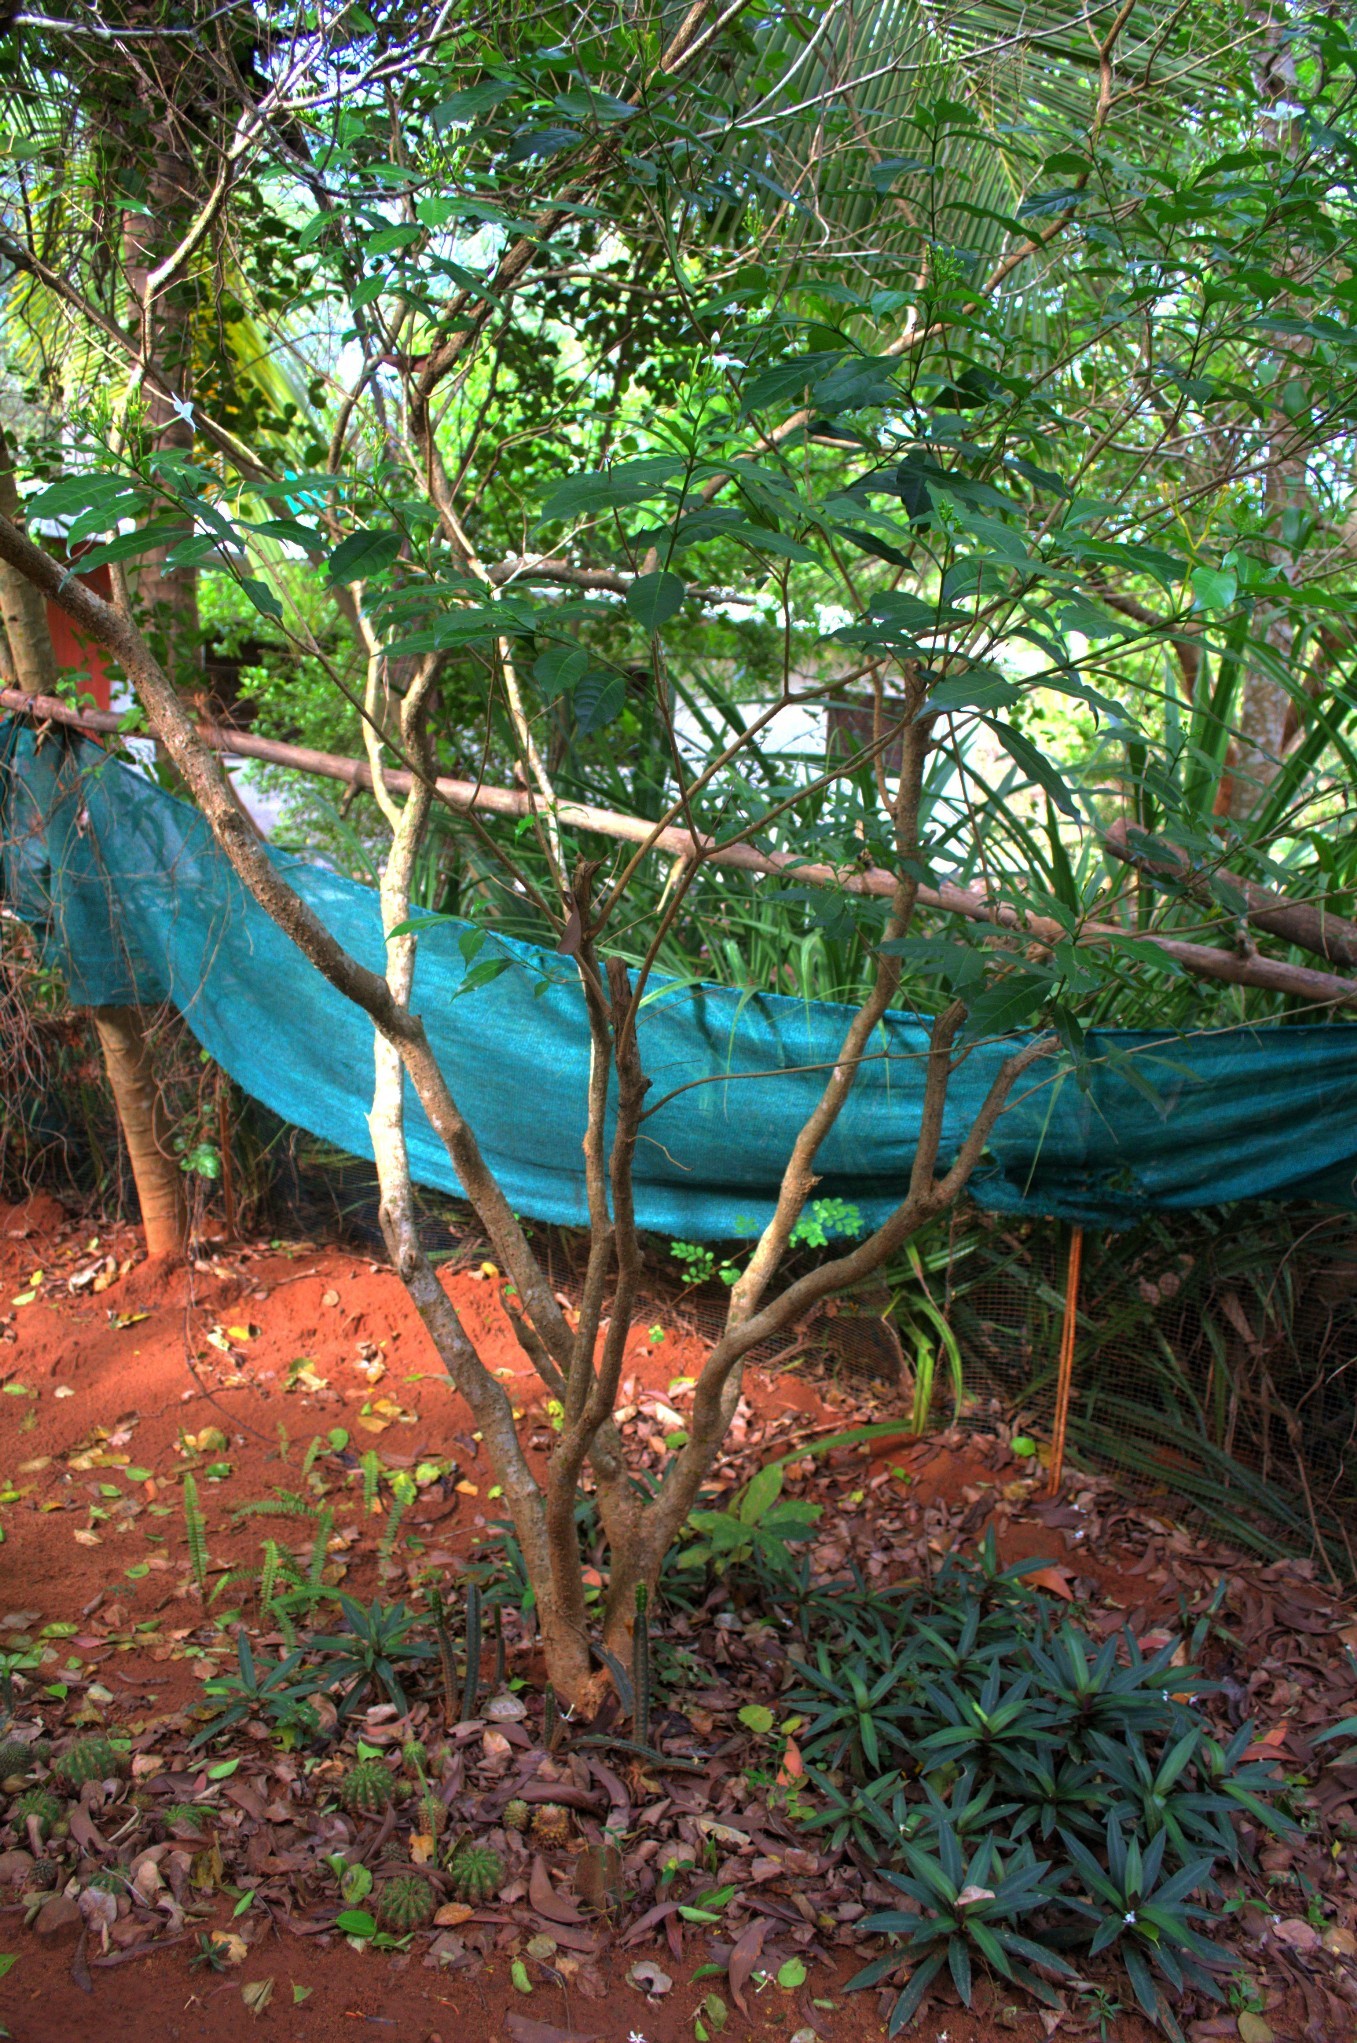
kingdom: Plantae
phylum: Tracheophyta
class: Magnoliopsida
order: Gentianales
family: Apocynaceae
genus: Tabernaemontana
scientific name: Tabernaemontana divaricata
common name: Pinwheelflower
